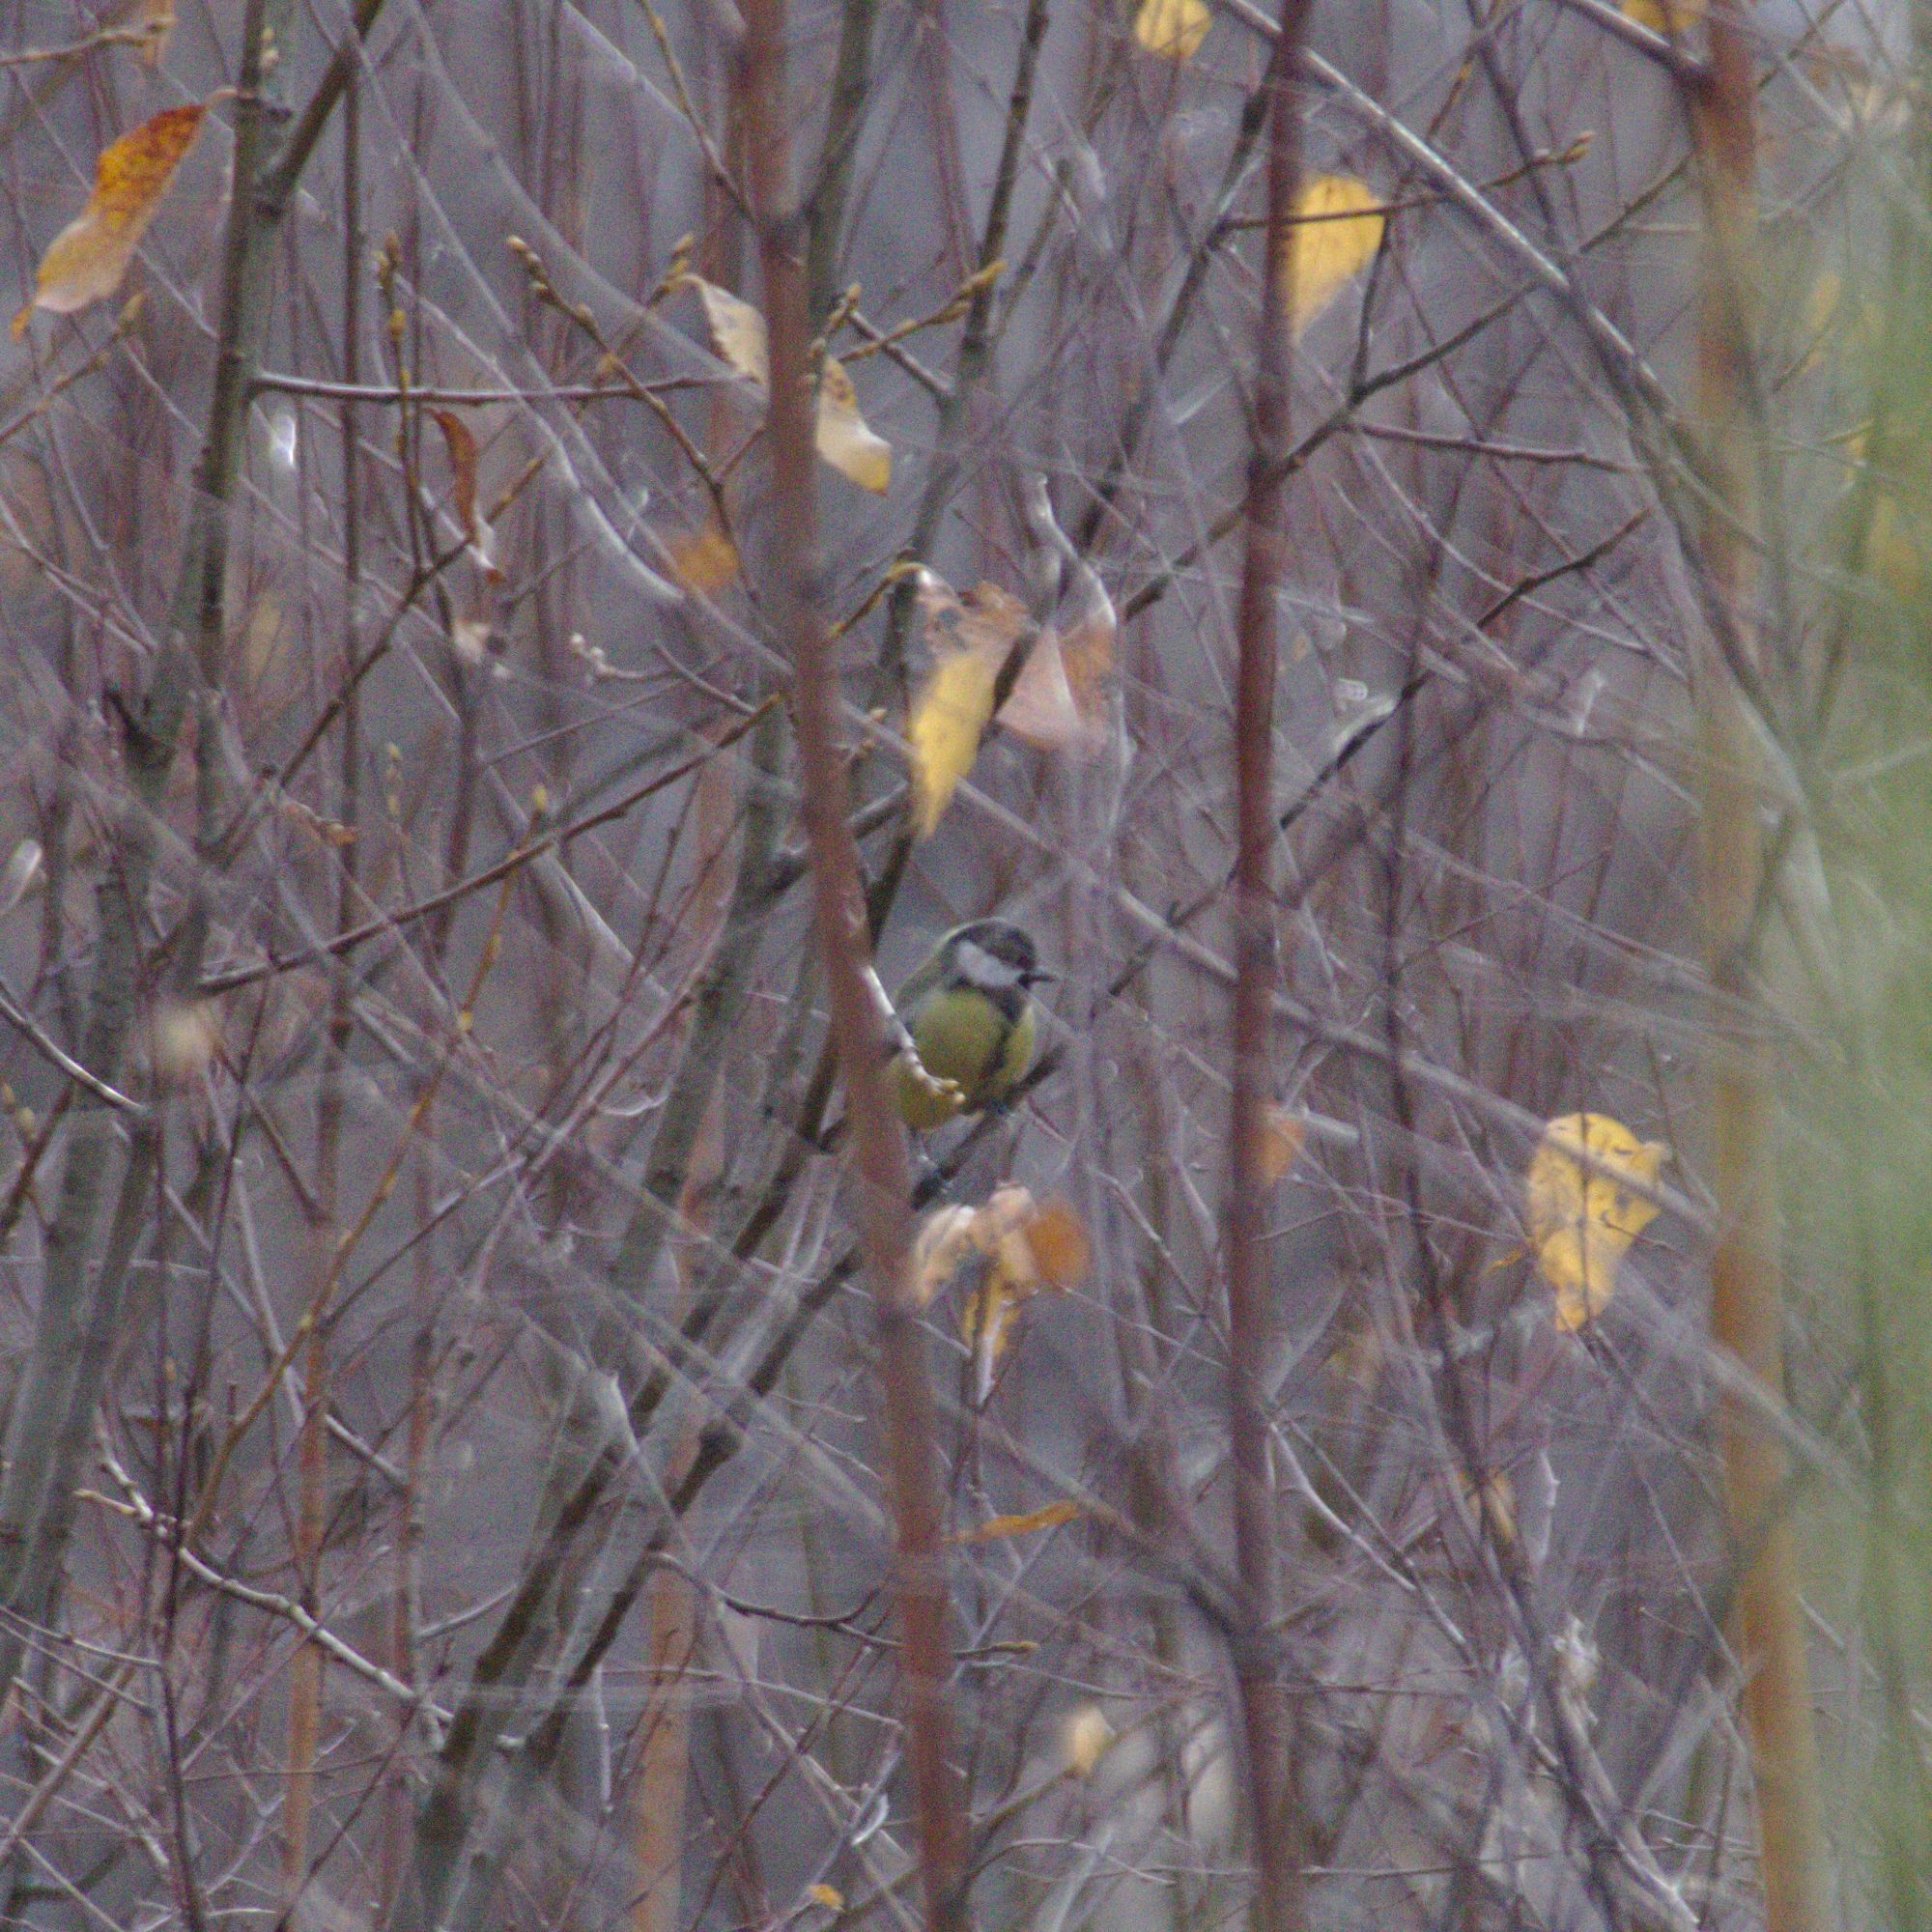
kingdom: Animalia
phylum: Chordata
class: Aves
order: Passeriformes
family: Paridae
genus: Parus
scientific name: Parus major
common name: Great tit
